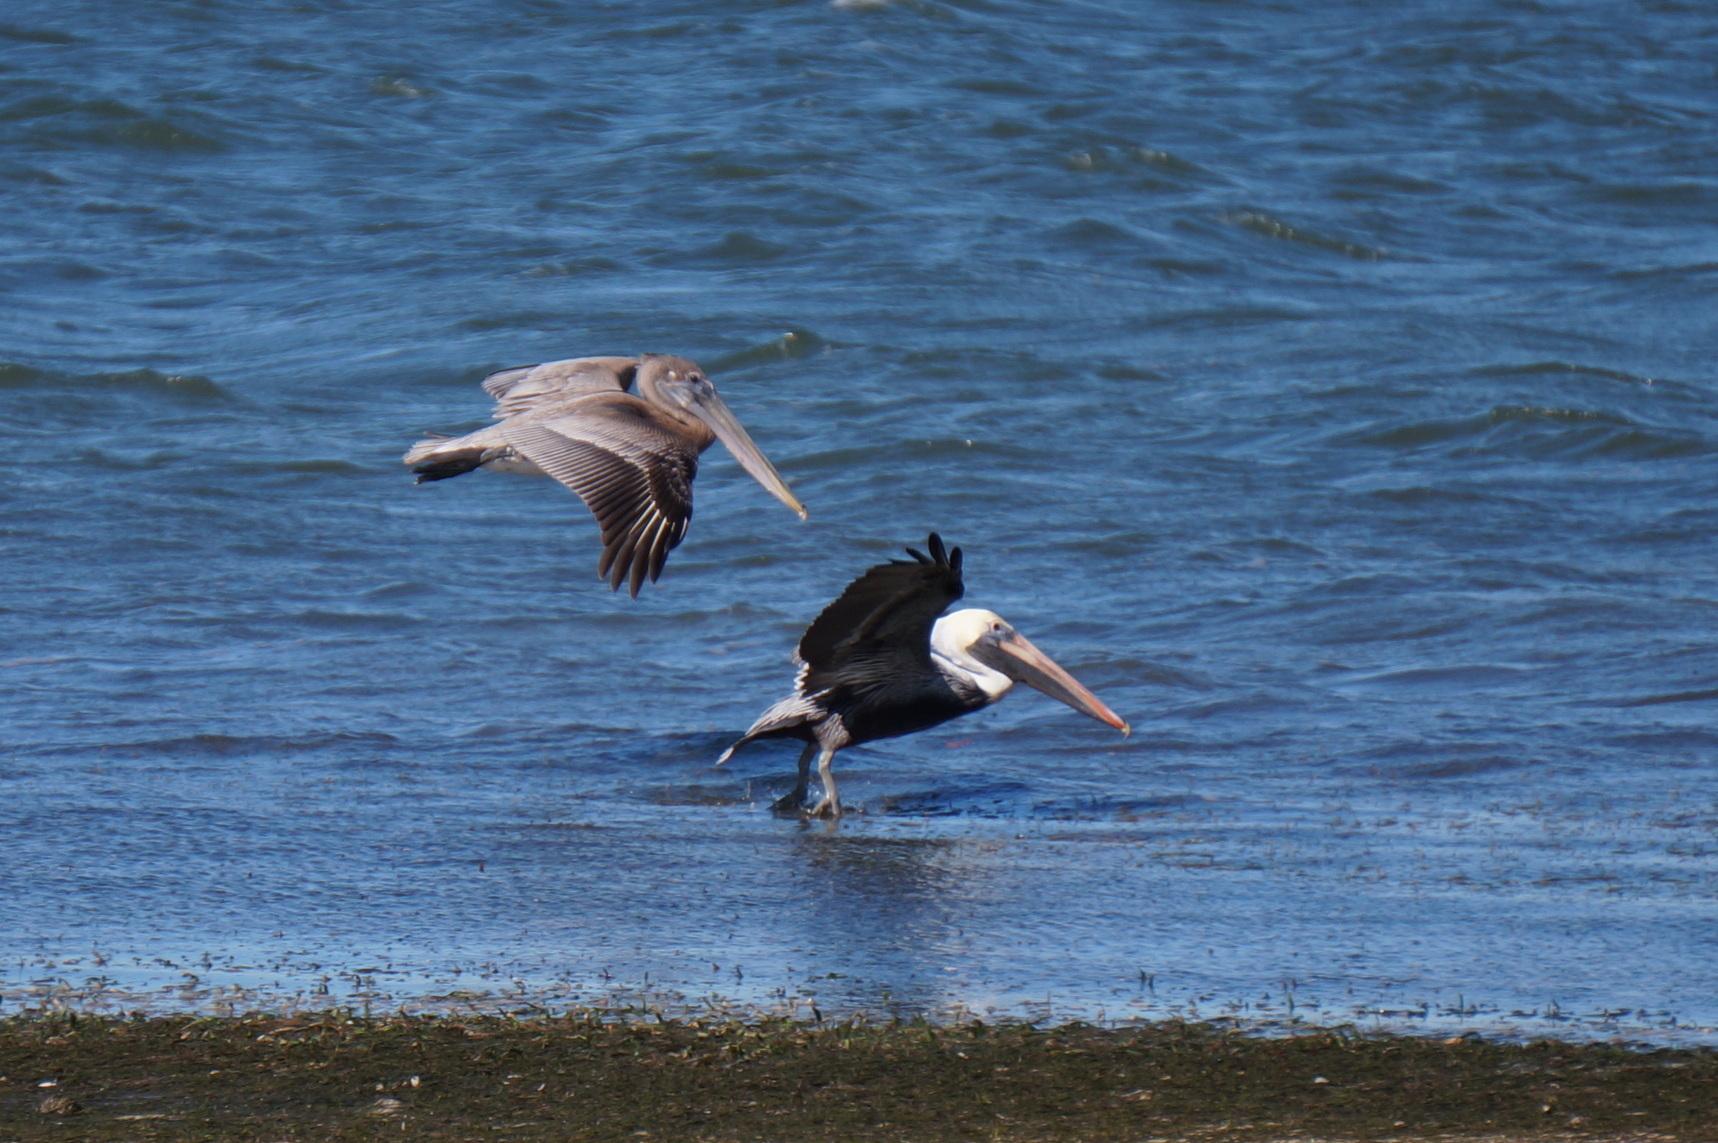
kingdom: Animalia
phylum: Chordata
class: Aves
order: Pelecaniformes
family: Pelecanidae
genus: Pelecanus
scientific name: Pelecanus occidentalis
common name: Brown pelican
